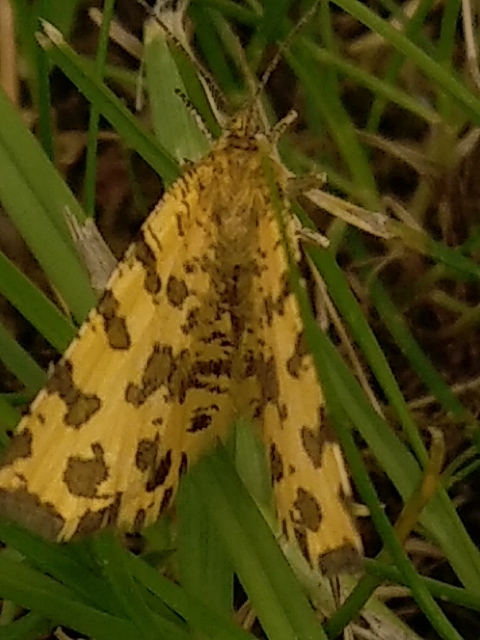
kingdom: Animalia
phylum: Arthropoda
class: Insecta
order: Lepidoptera
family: Geometridae
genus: Pseudopanthera
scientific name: Pseudopanthera macularia
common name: Speckled yellow
